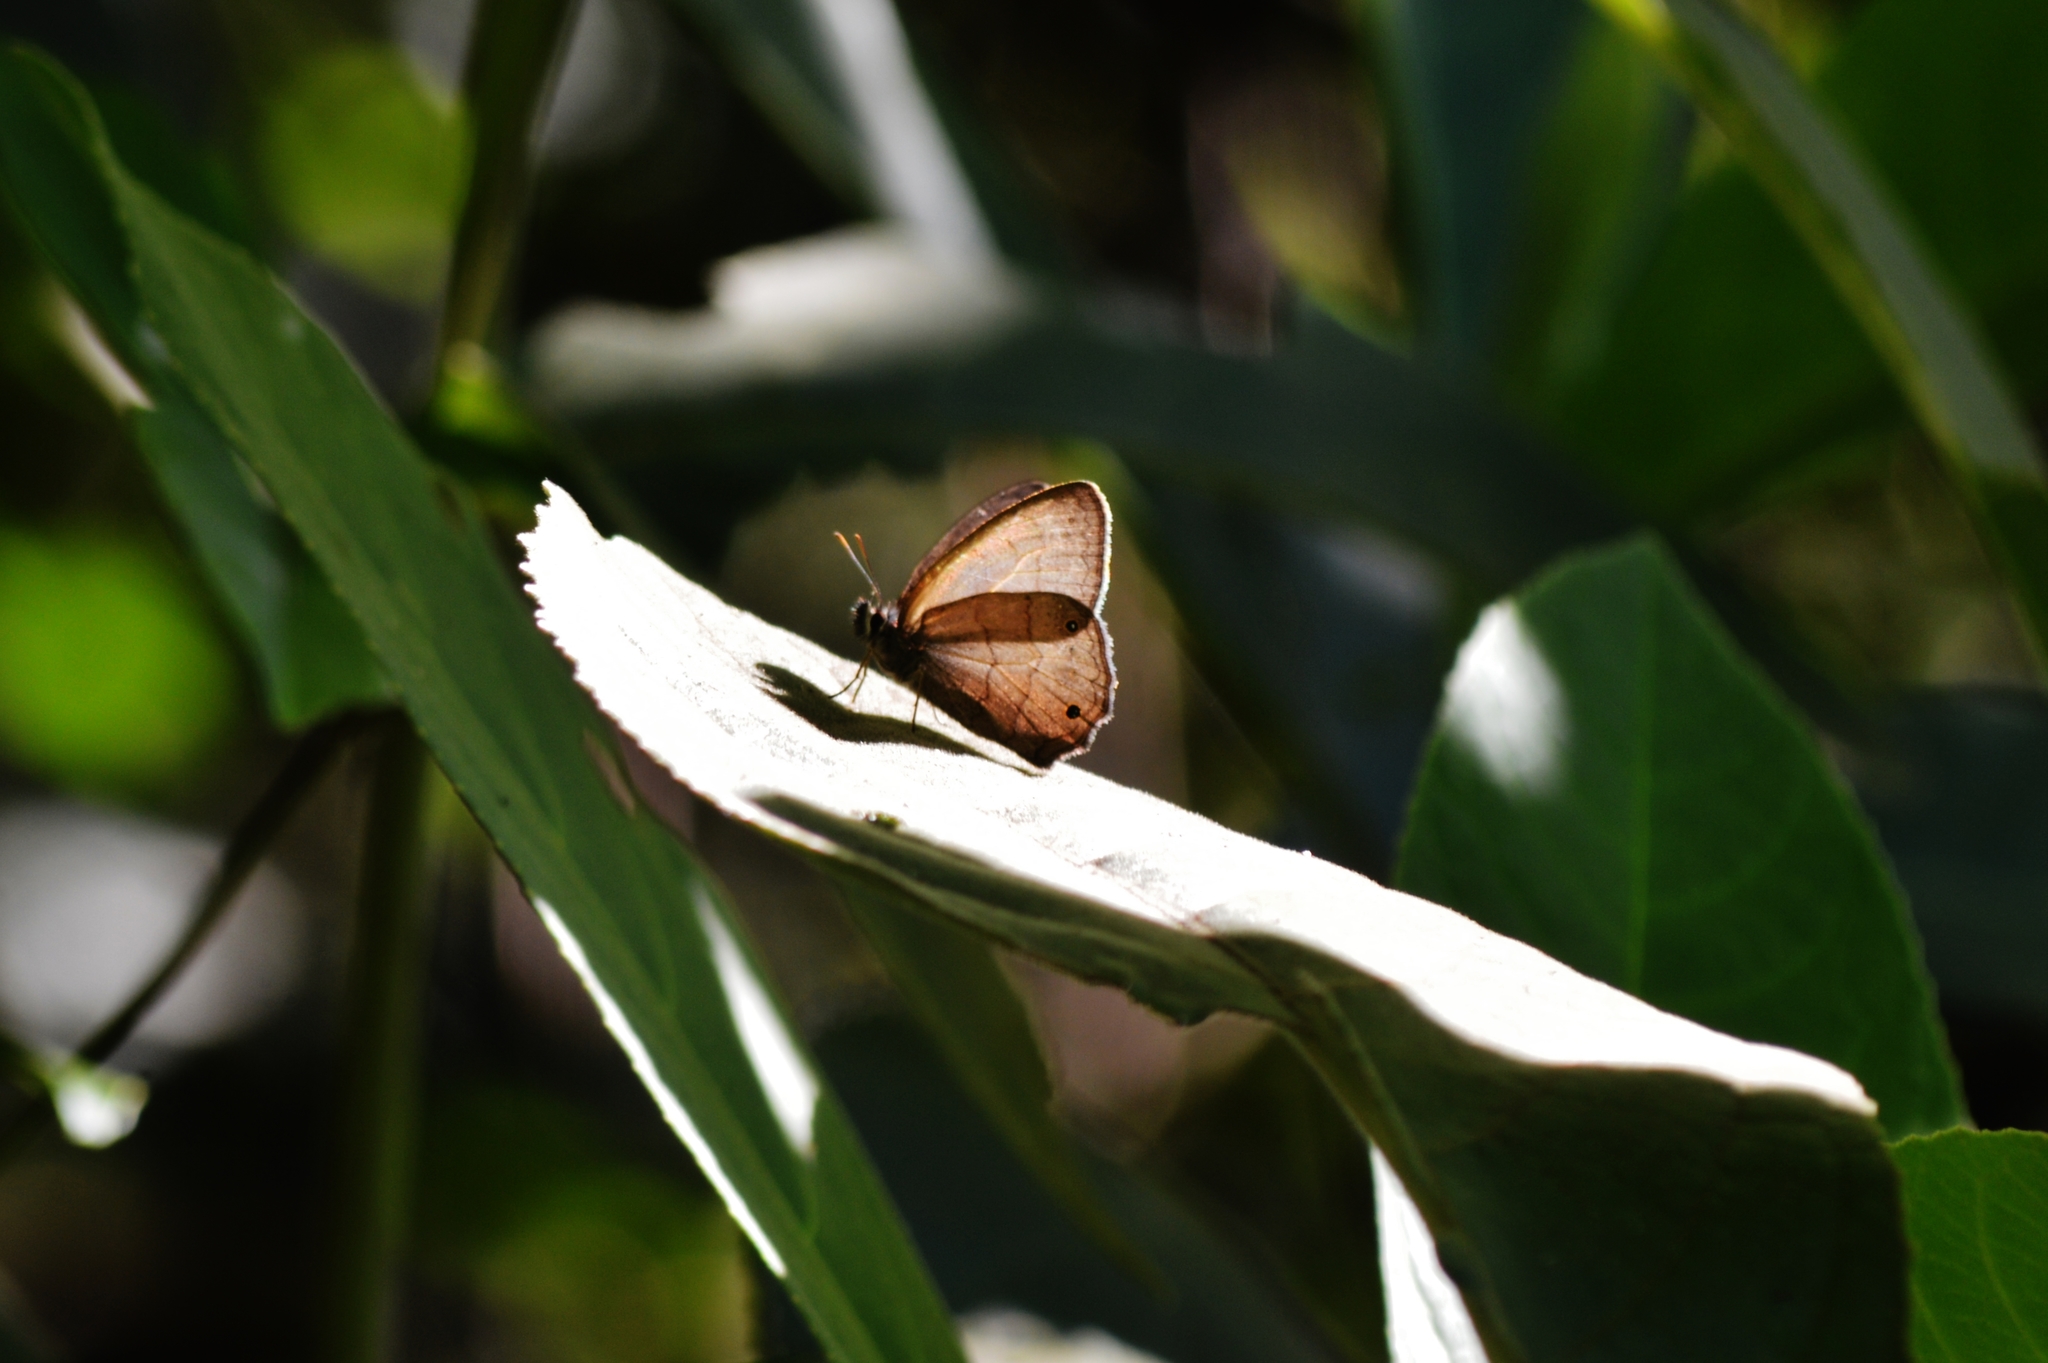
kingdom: Animalia
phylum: Arthropoda
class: Insecta
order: Lepidoptera
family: Nymphalidae
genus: Euptychia
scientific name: Euptychia Cissia eous
